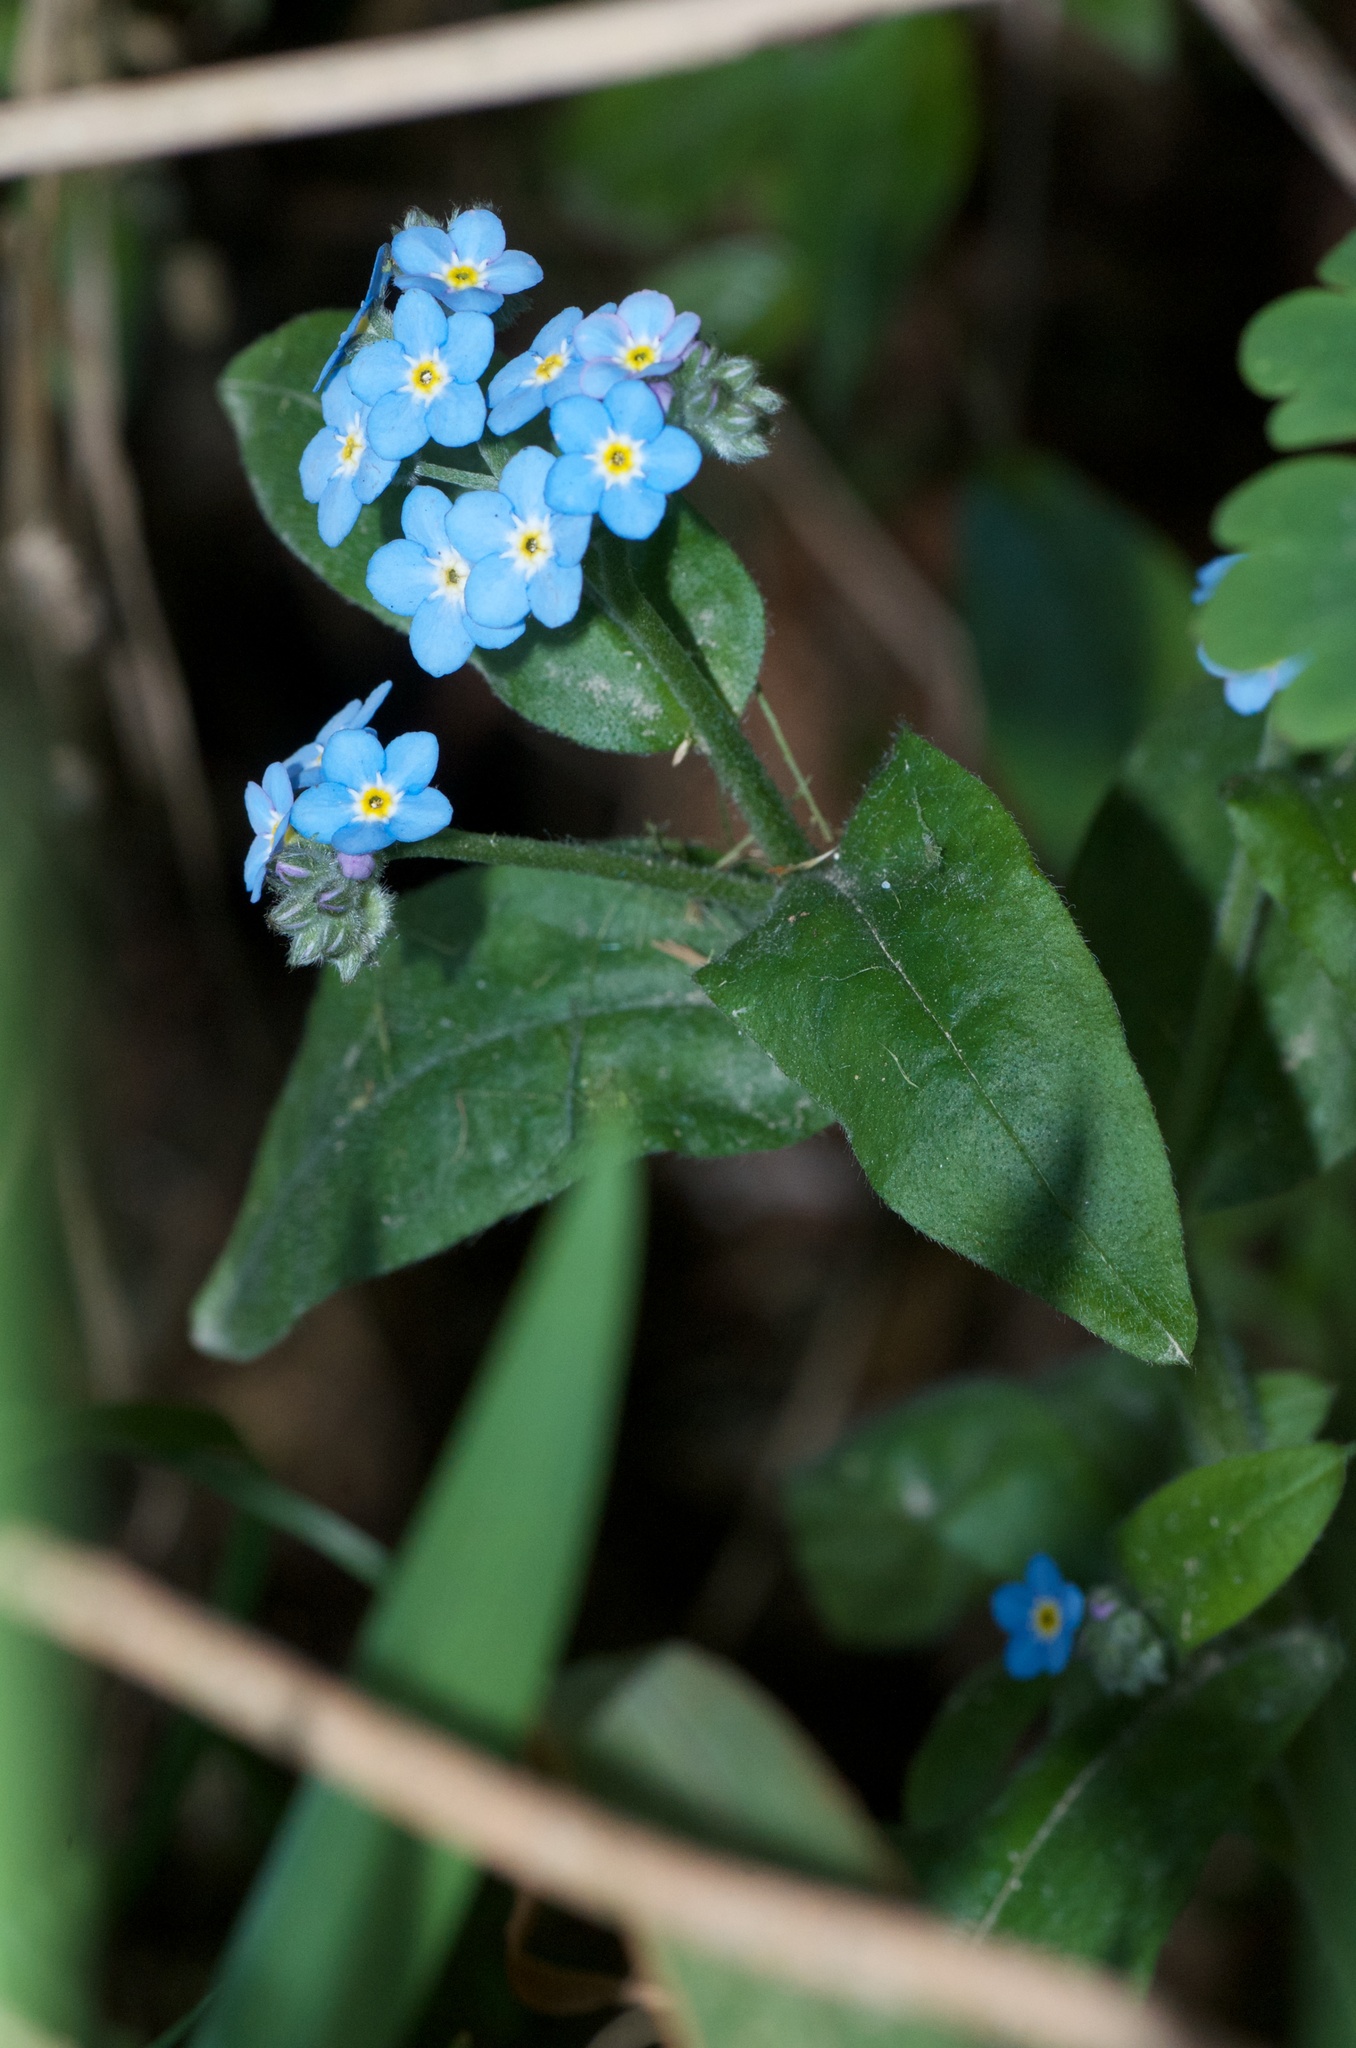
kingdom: Plantae
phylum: Tracheophyta
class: Magnoliopsida
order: Boraginales
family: Boraginaceae
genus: Myosotis
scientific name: Myosotis sylvatica
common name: Wood forget-me-not
